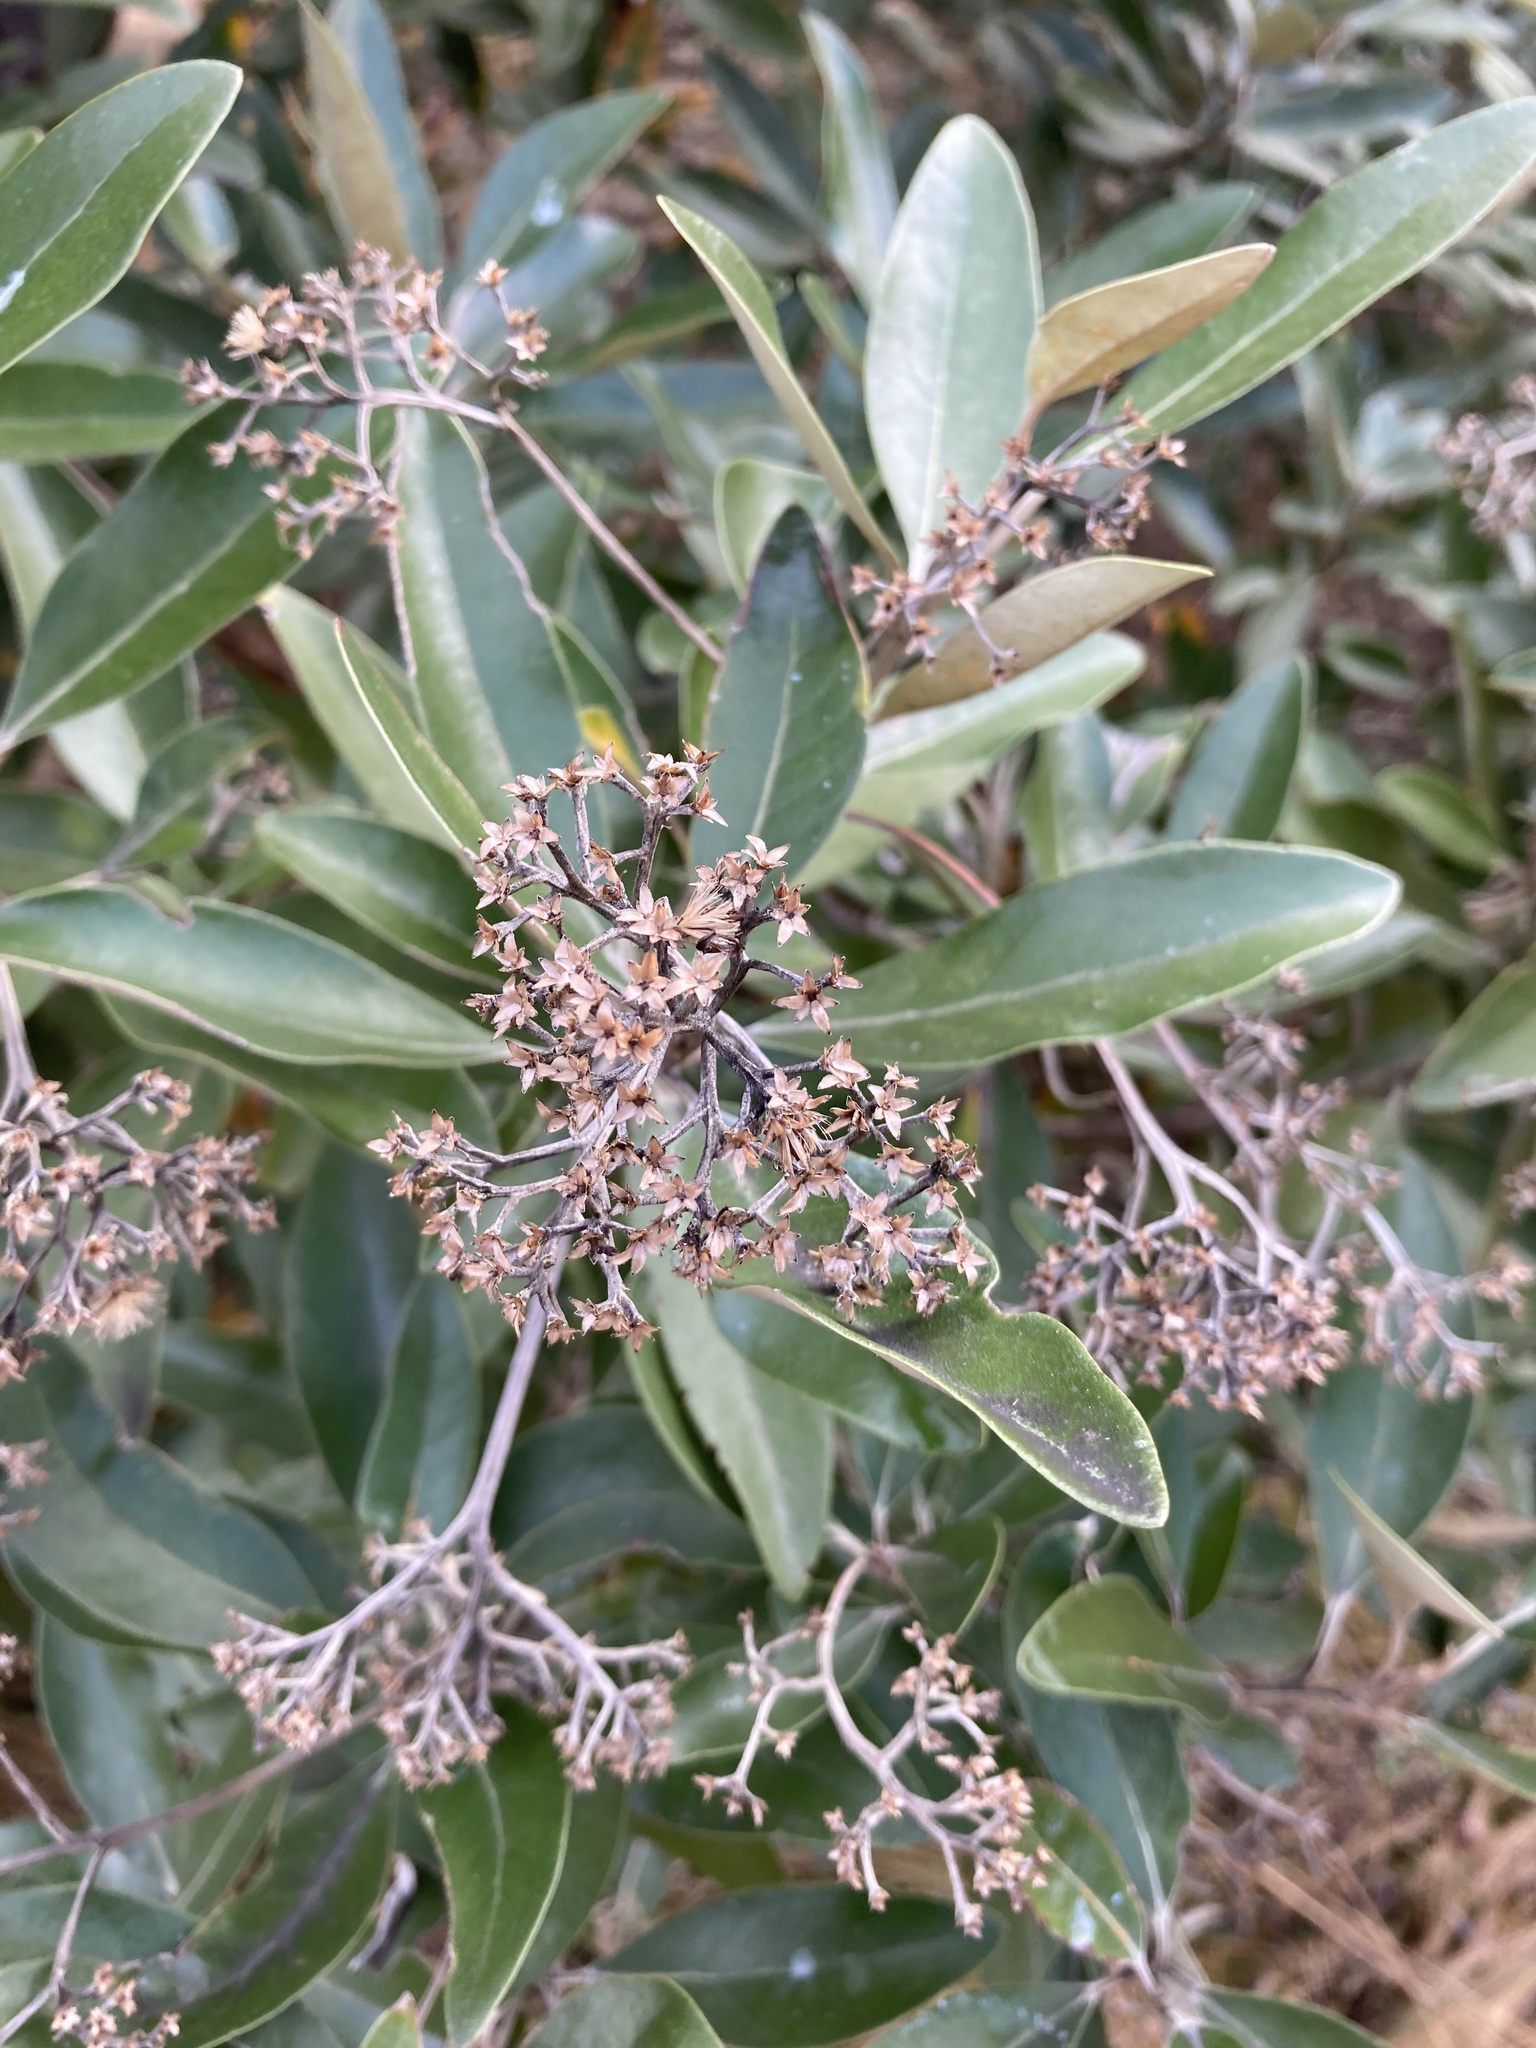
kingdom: Plantae
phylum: Tracheophyta
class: Magnoliopsida
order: Asterales
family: Asteraceae
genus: Olearia
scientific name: Olearia avicenniifolia
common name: Mangrove-leaf daisybush
